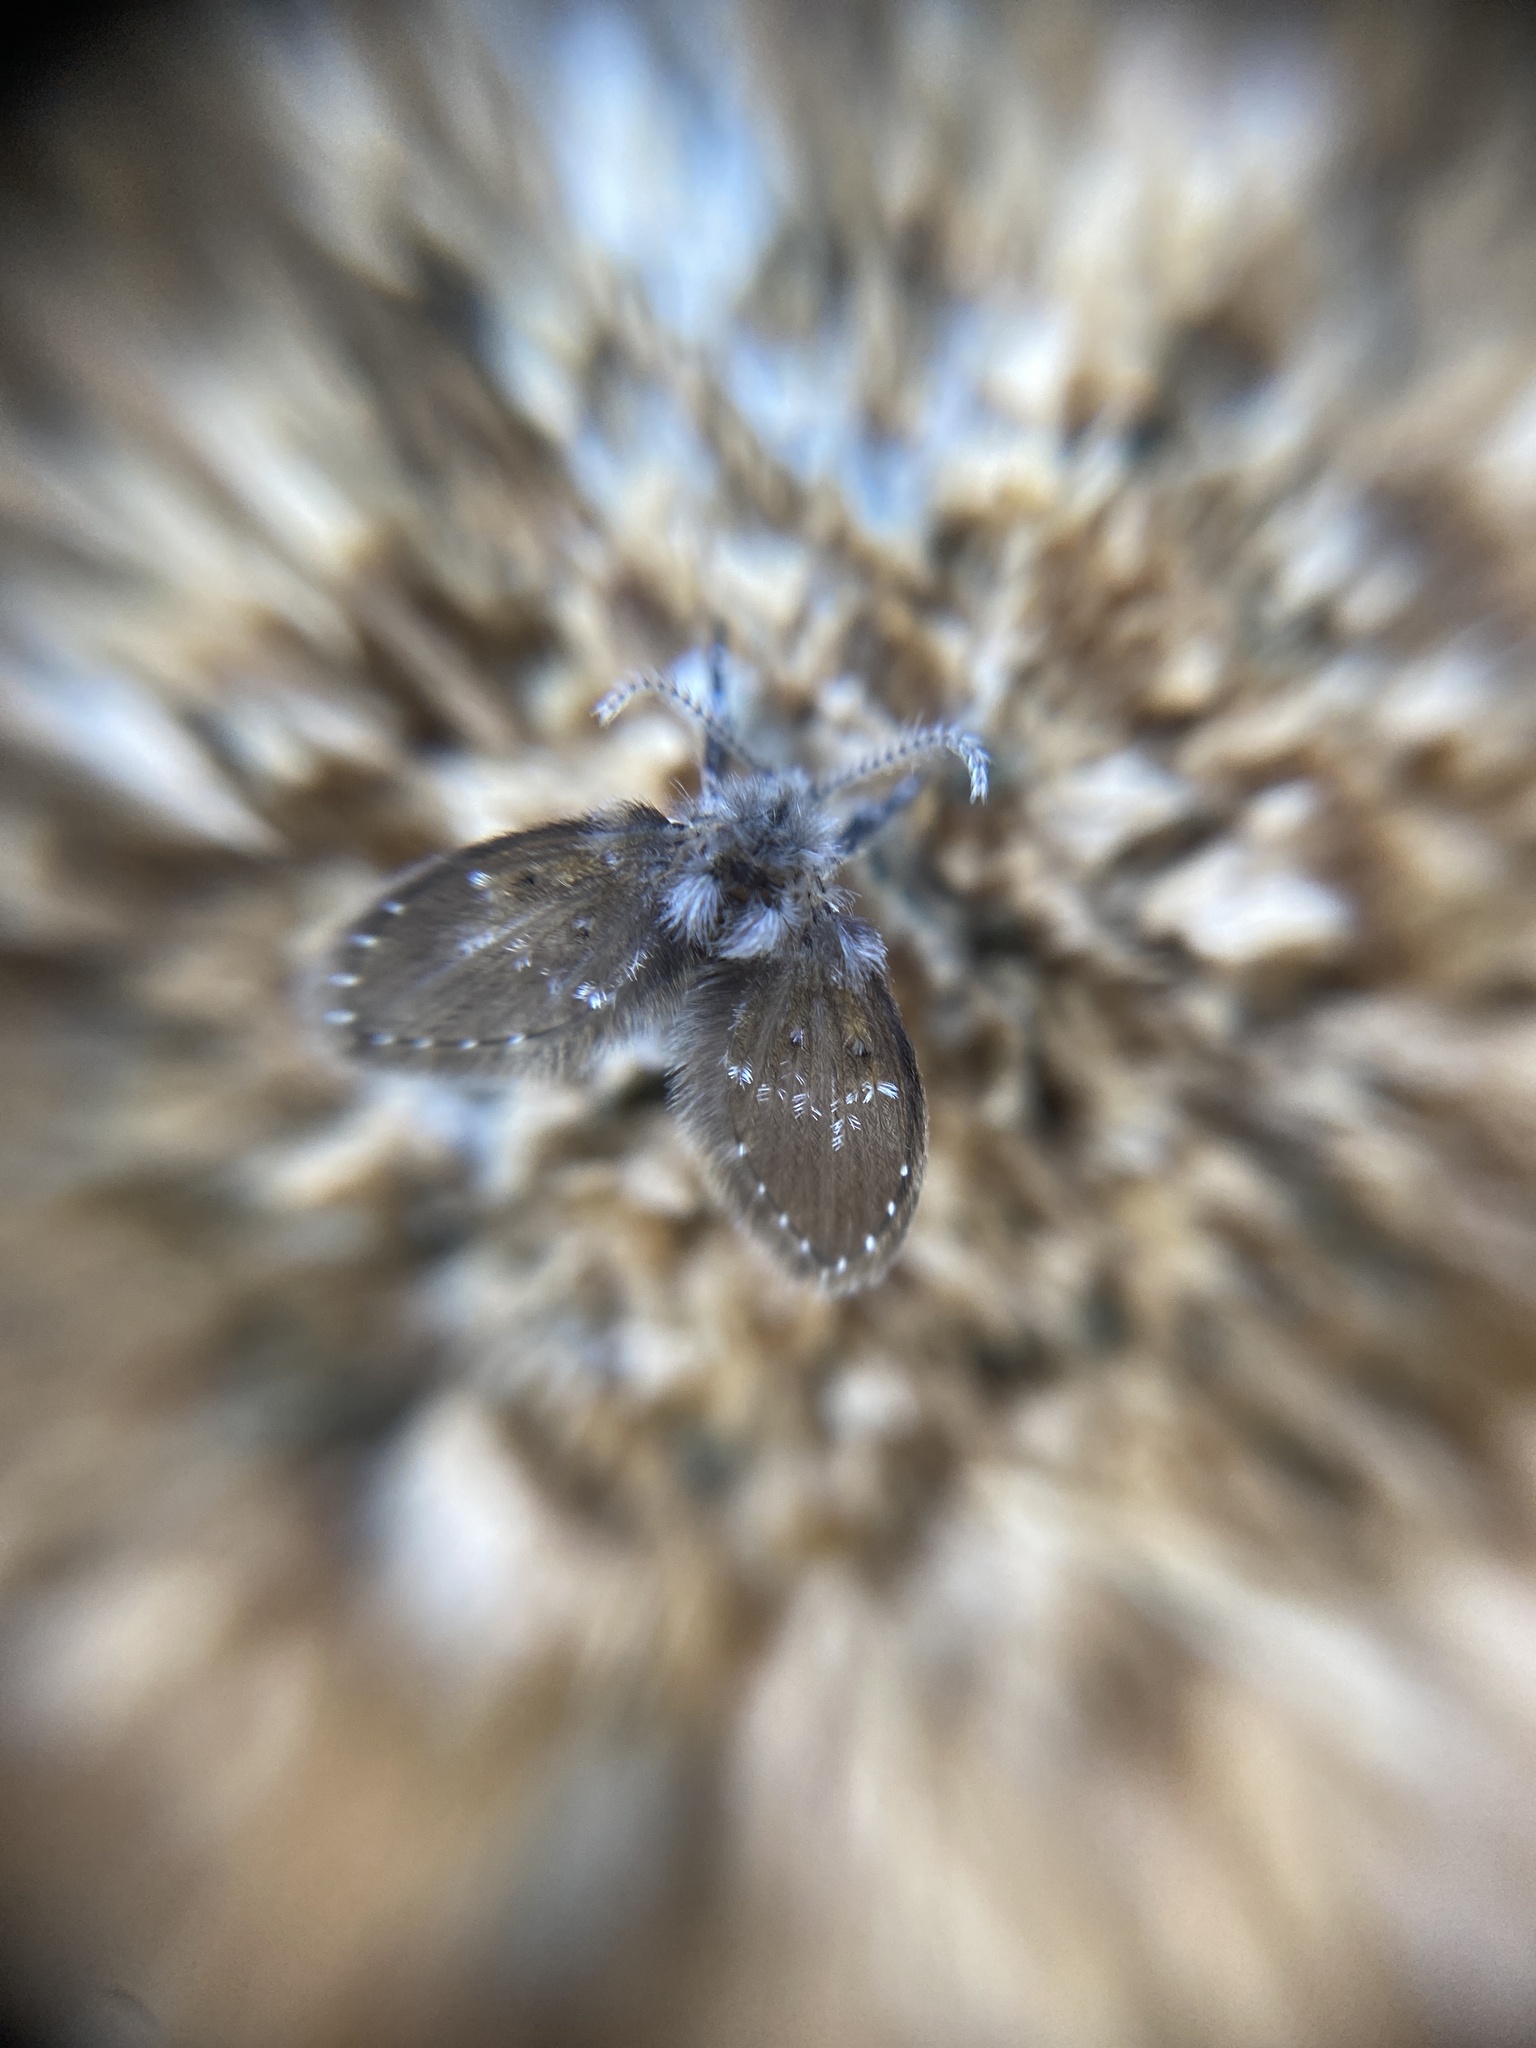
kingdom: Animalia
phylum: Arthropoda
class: Insecta
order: Diptera
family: Psychodidae
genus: Clogmia
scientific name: Clogmia albipunctatus
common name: White-spotted moth fly
